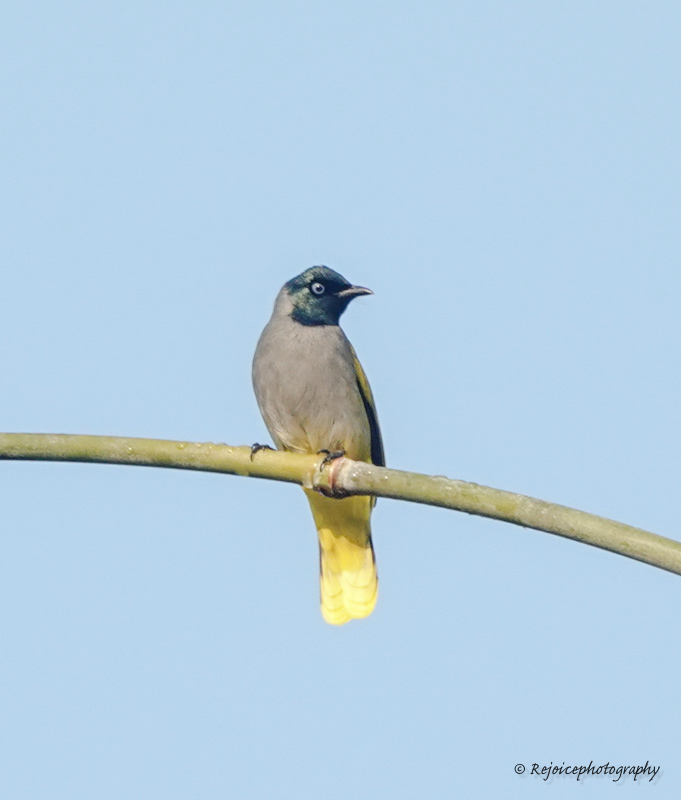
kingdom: Animalia
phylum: Chordata
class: Aves
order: Passeriformes
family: Pycnonotidae
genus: Microtarsus
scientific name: Microtarsus
